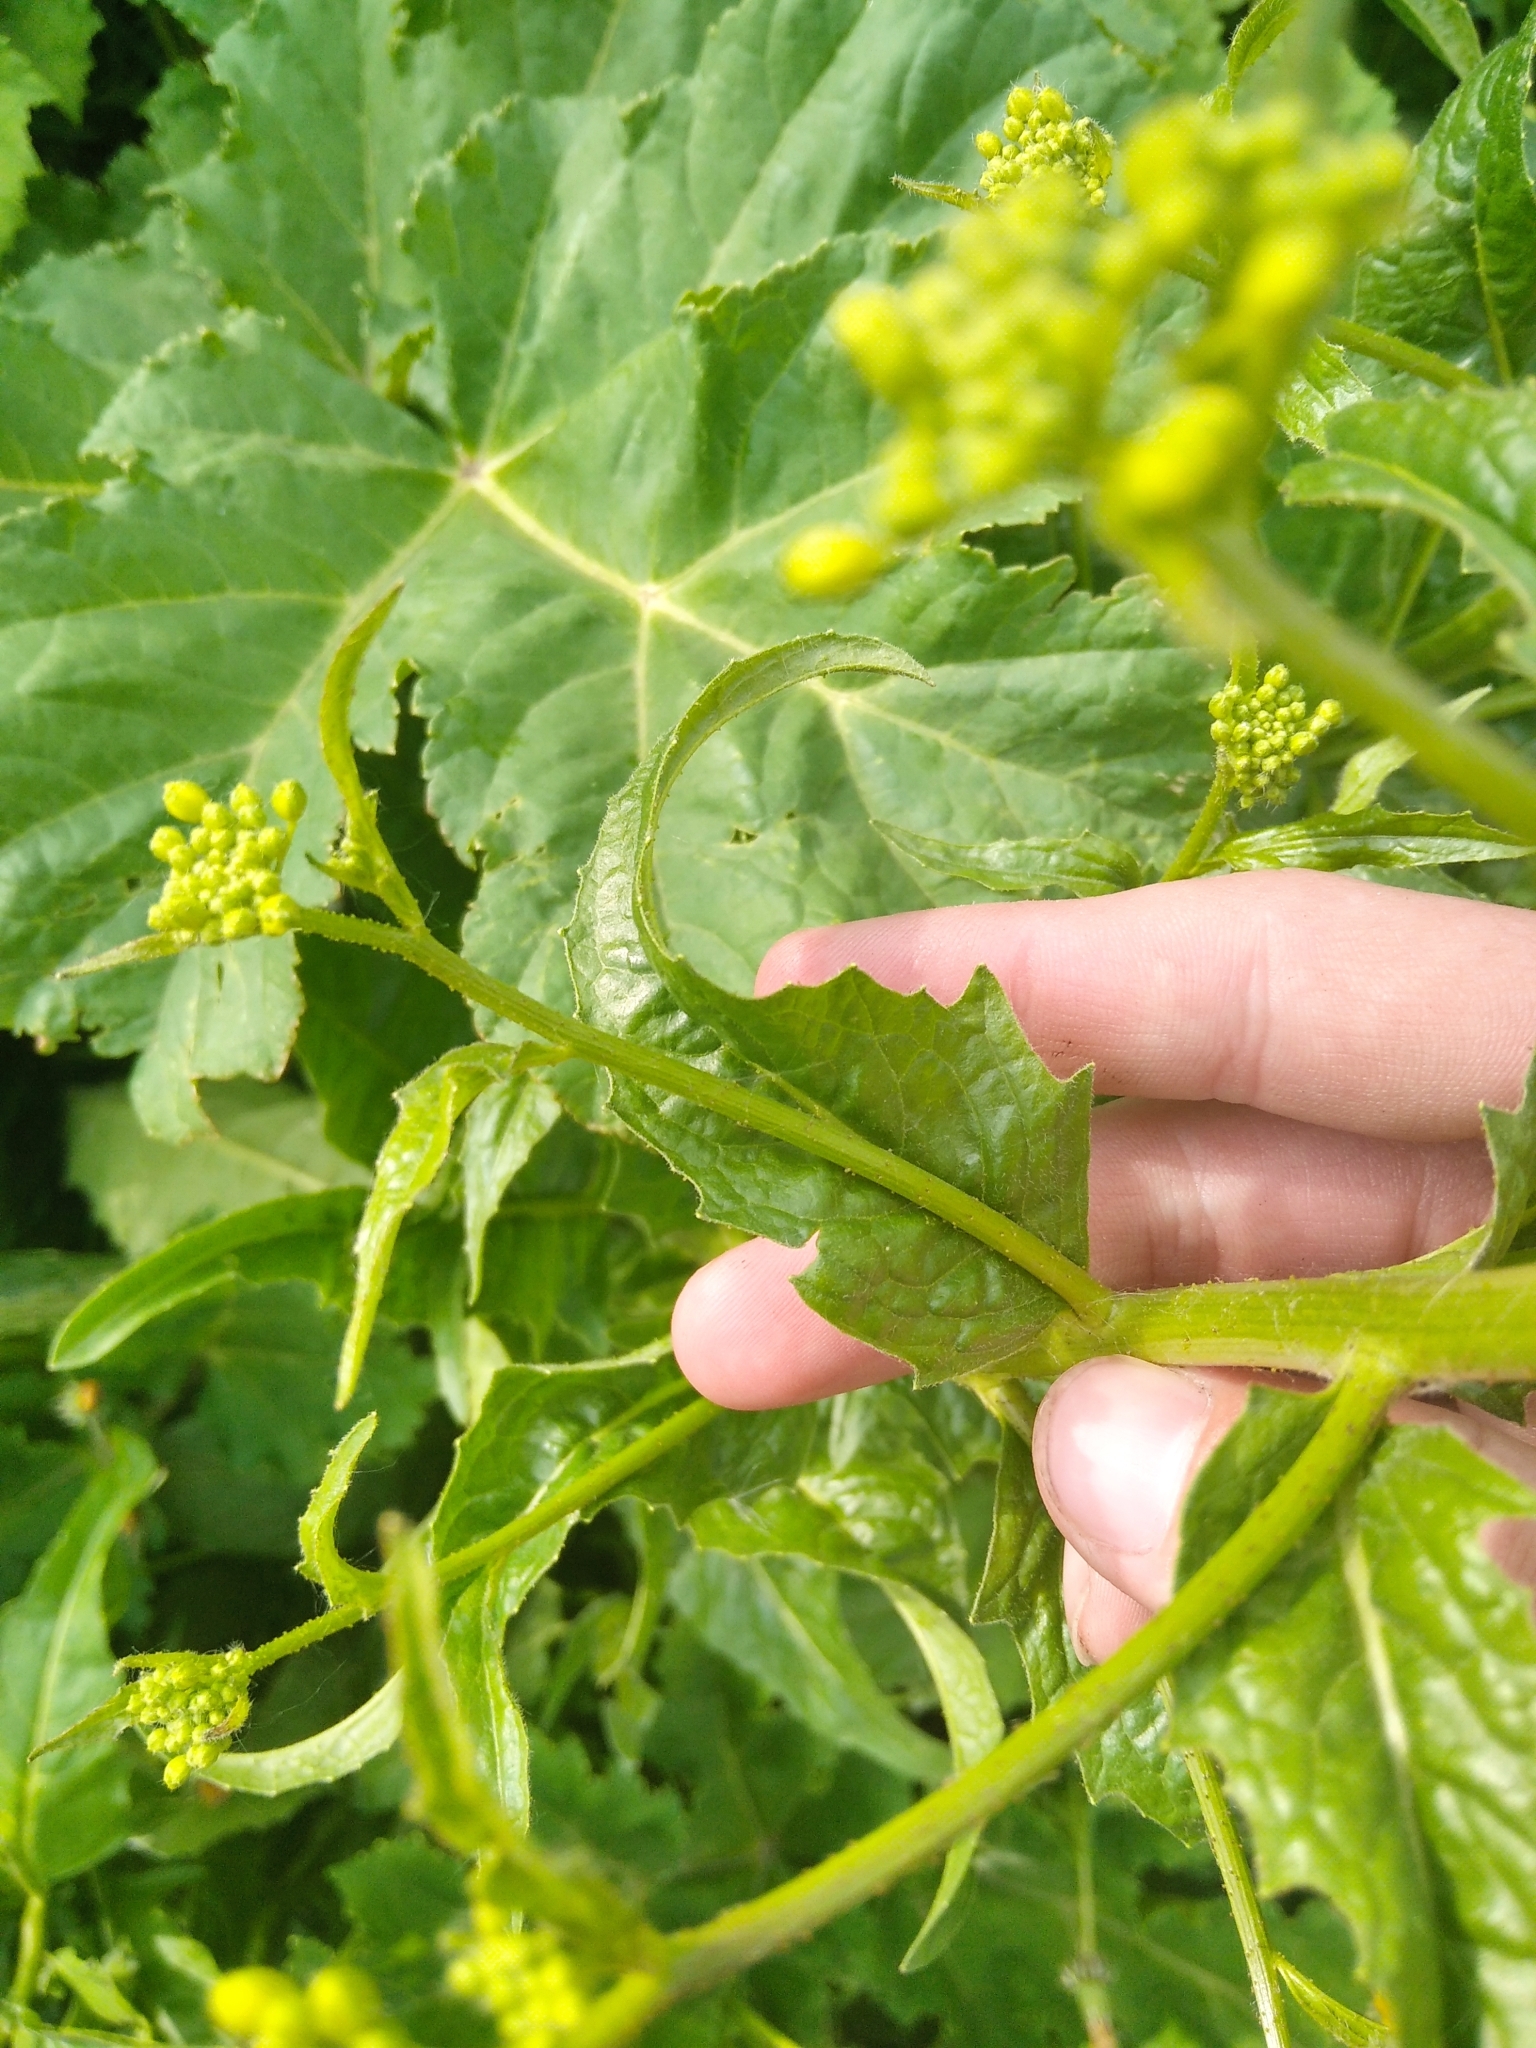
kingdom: Plantae
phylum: Tracheophyta
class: Magnoliopsida
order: Brassicales
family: Brassicaceae
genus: Bunias
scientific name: Bunias orientalis
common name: Warty-cabbage
